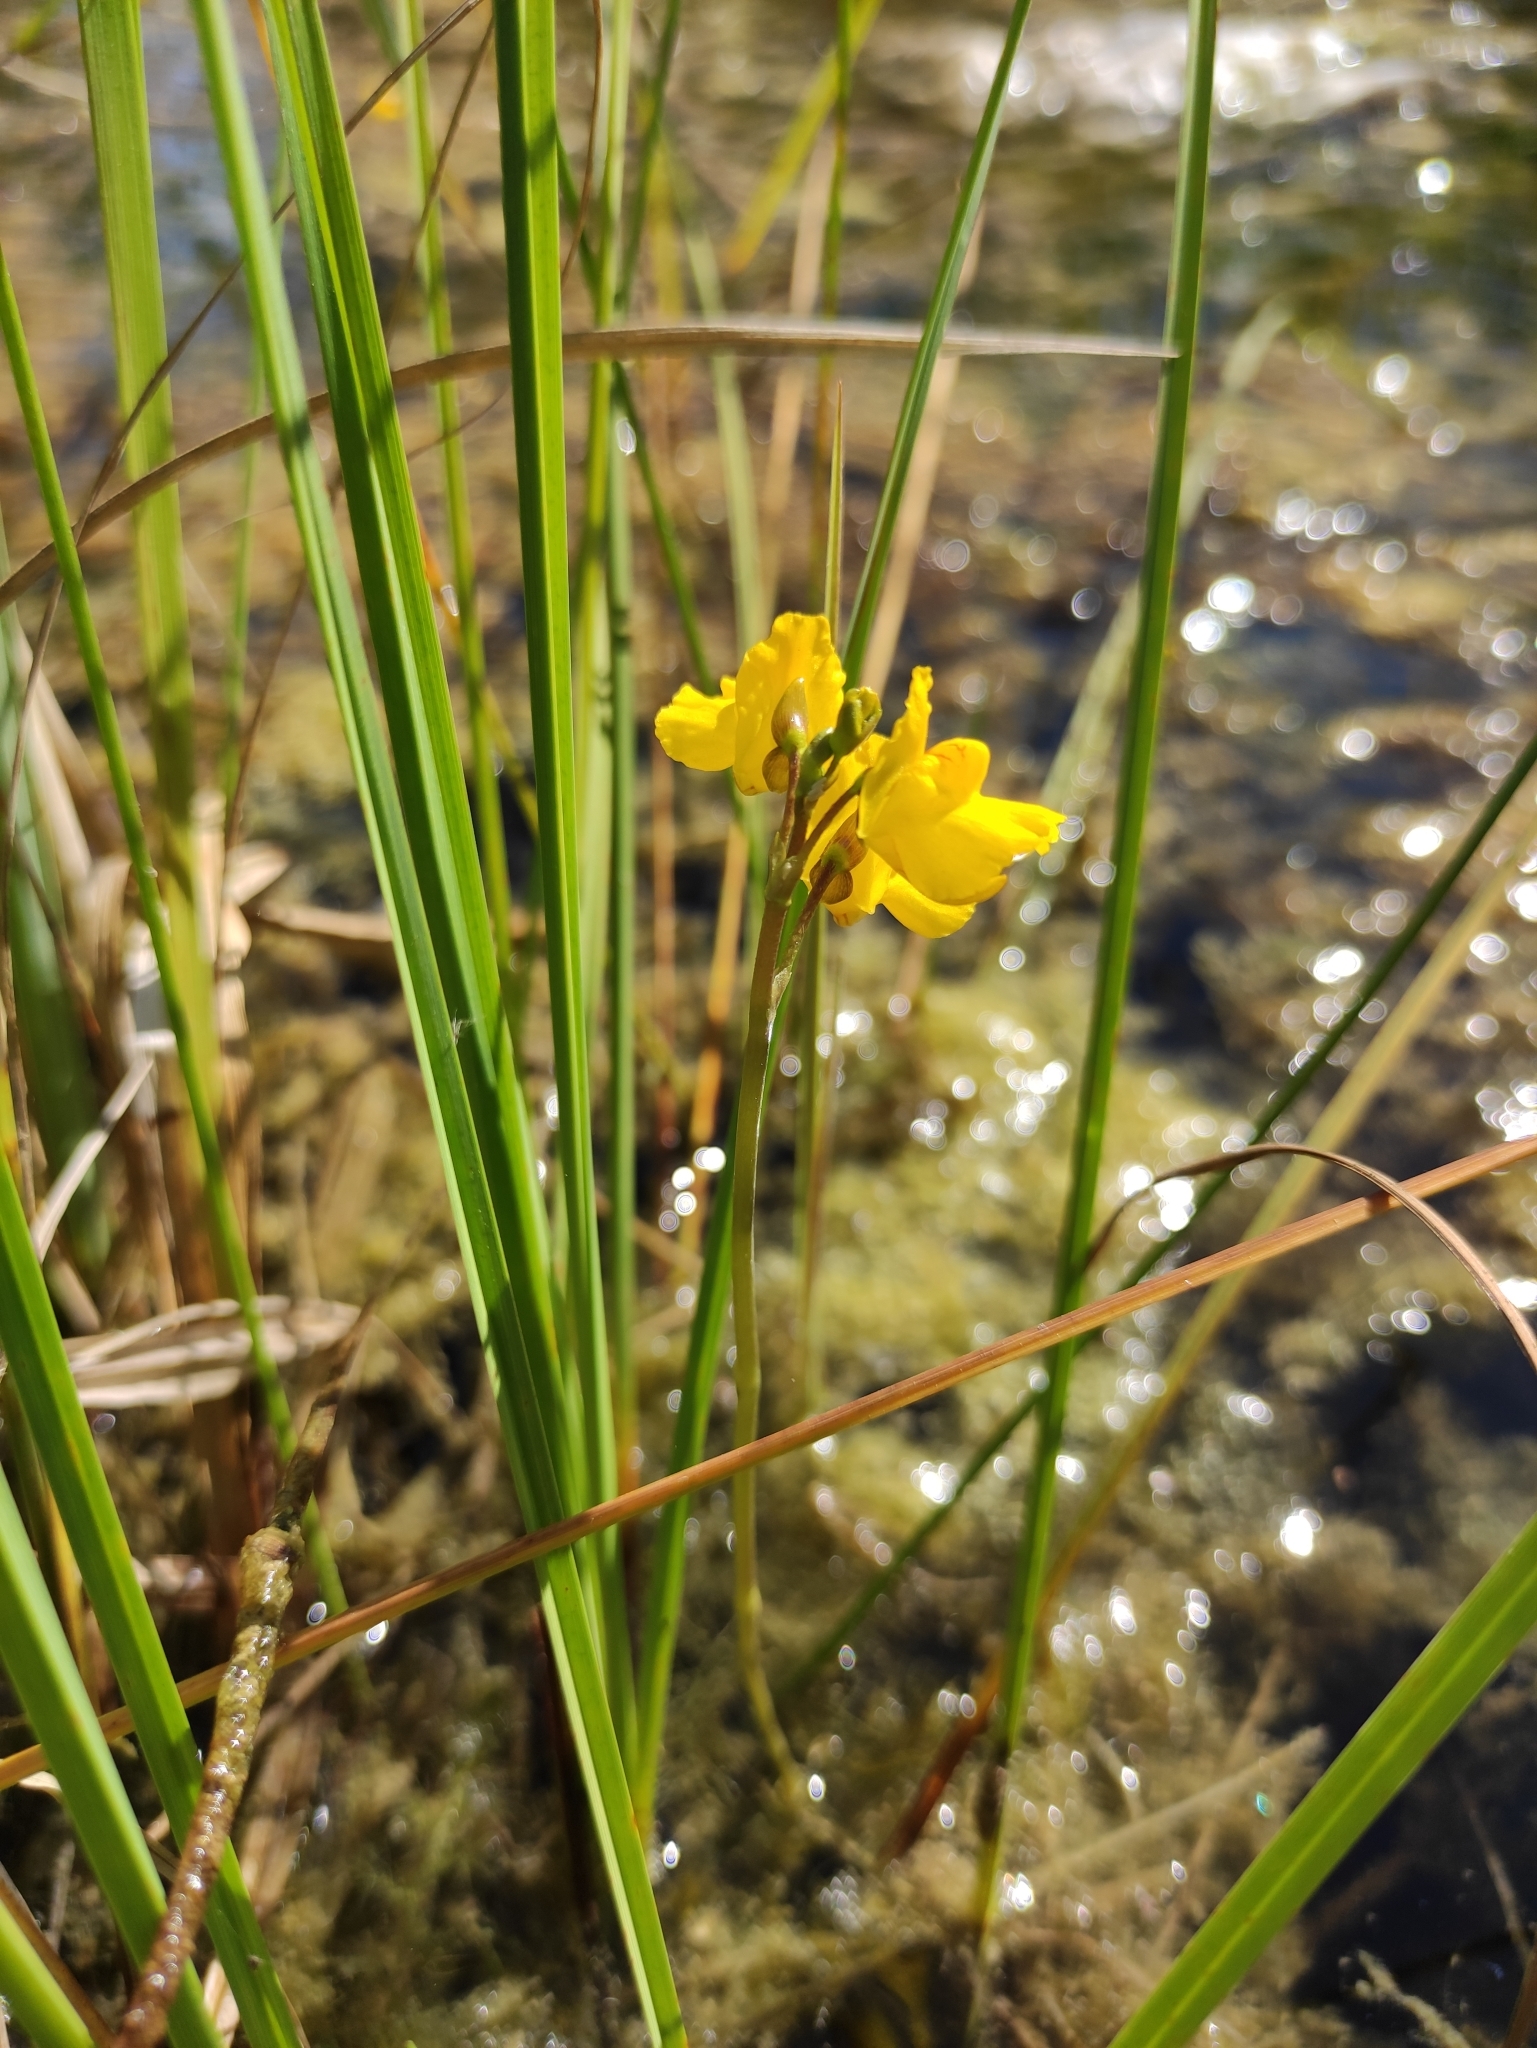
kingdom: Plantae
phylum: Tracheophyta
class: Magnoliopsida
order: Lamiales
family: Lentibulariaceae
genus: Utricularia
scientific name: Utricularia macrorhiza
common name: Common bladderwort
